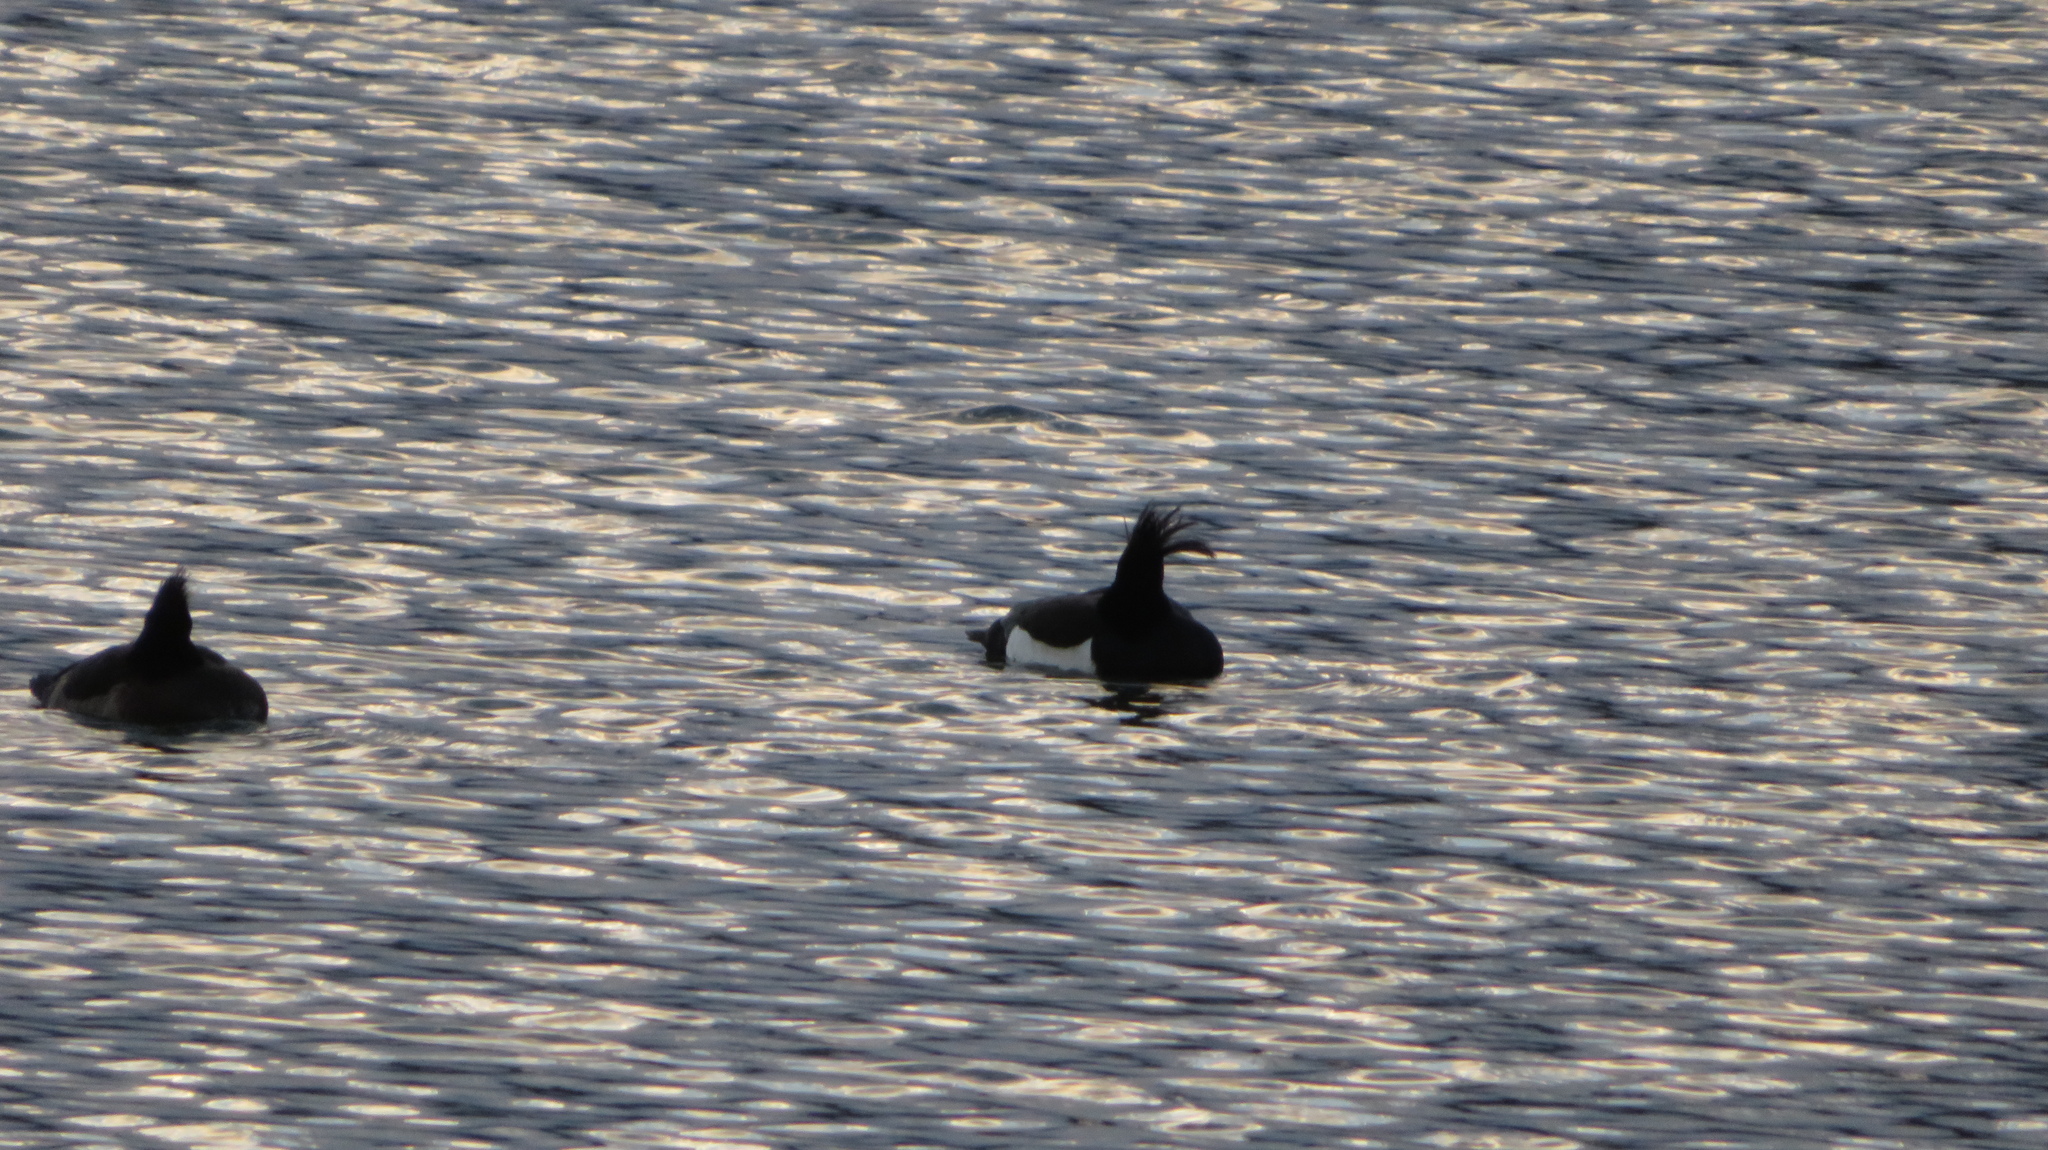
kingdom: Animalia
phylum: Chordata
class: Aves
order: Anseriformes
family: Anatidae
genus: Aythya
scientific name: Aythya fuligula
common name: Tufted duck
